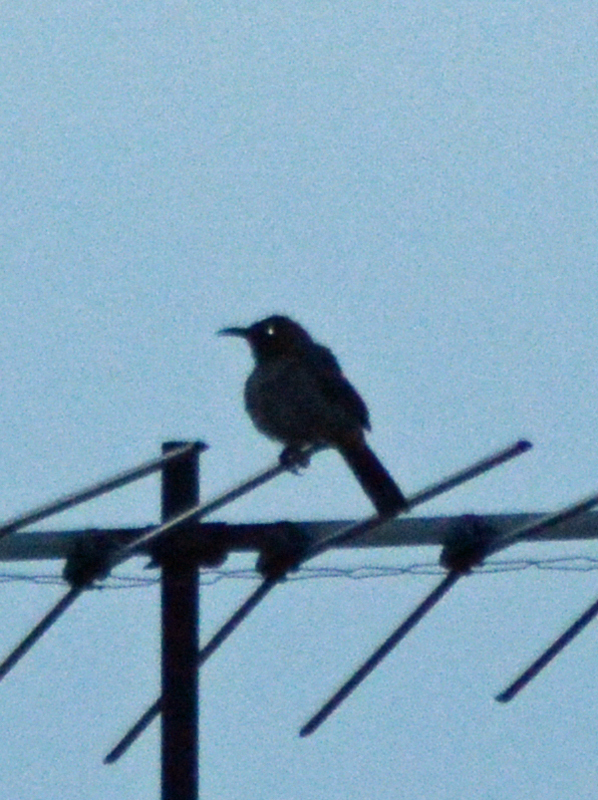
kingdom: Animalia
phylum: Chordata
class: Aves
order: Passeriformes
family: Mimidae
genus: Toxostoma
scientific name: Toxostoma curvirostre
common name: Curve-billed thrasher
